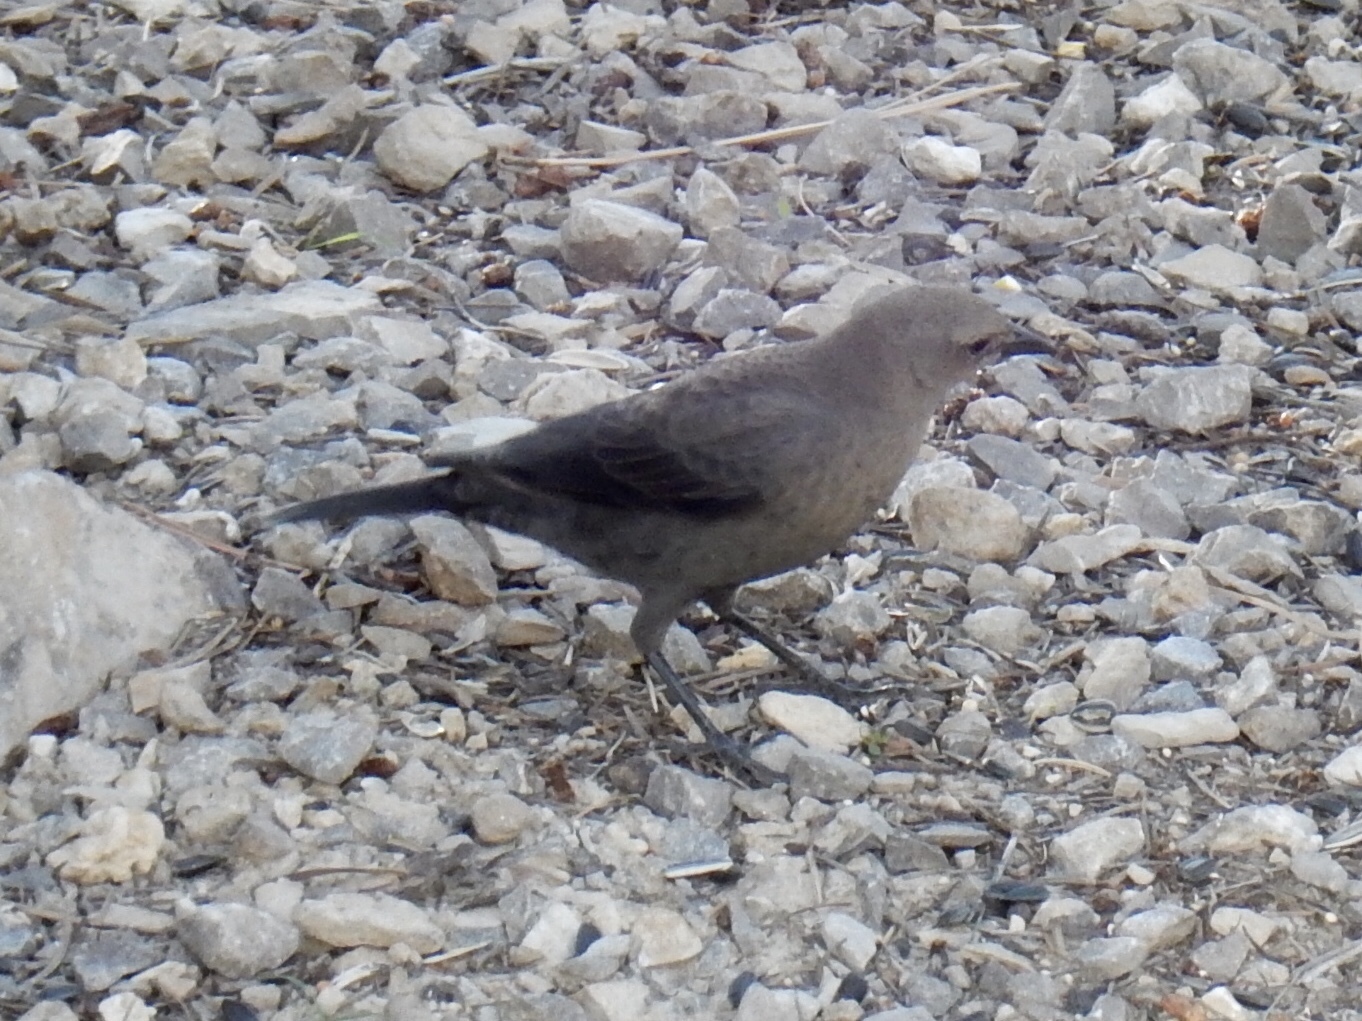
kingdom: Animalia
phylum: Chordata
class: Aves
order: Passeriformes
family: Icteridae
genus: Euphagus
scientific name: Euphagus cyanocephalus
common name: Brewer's blackbird
